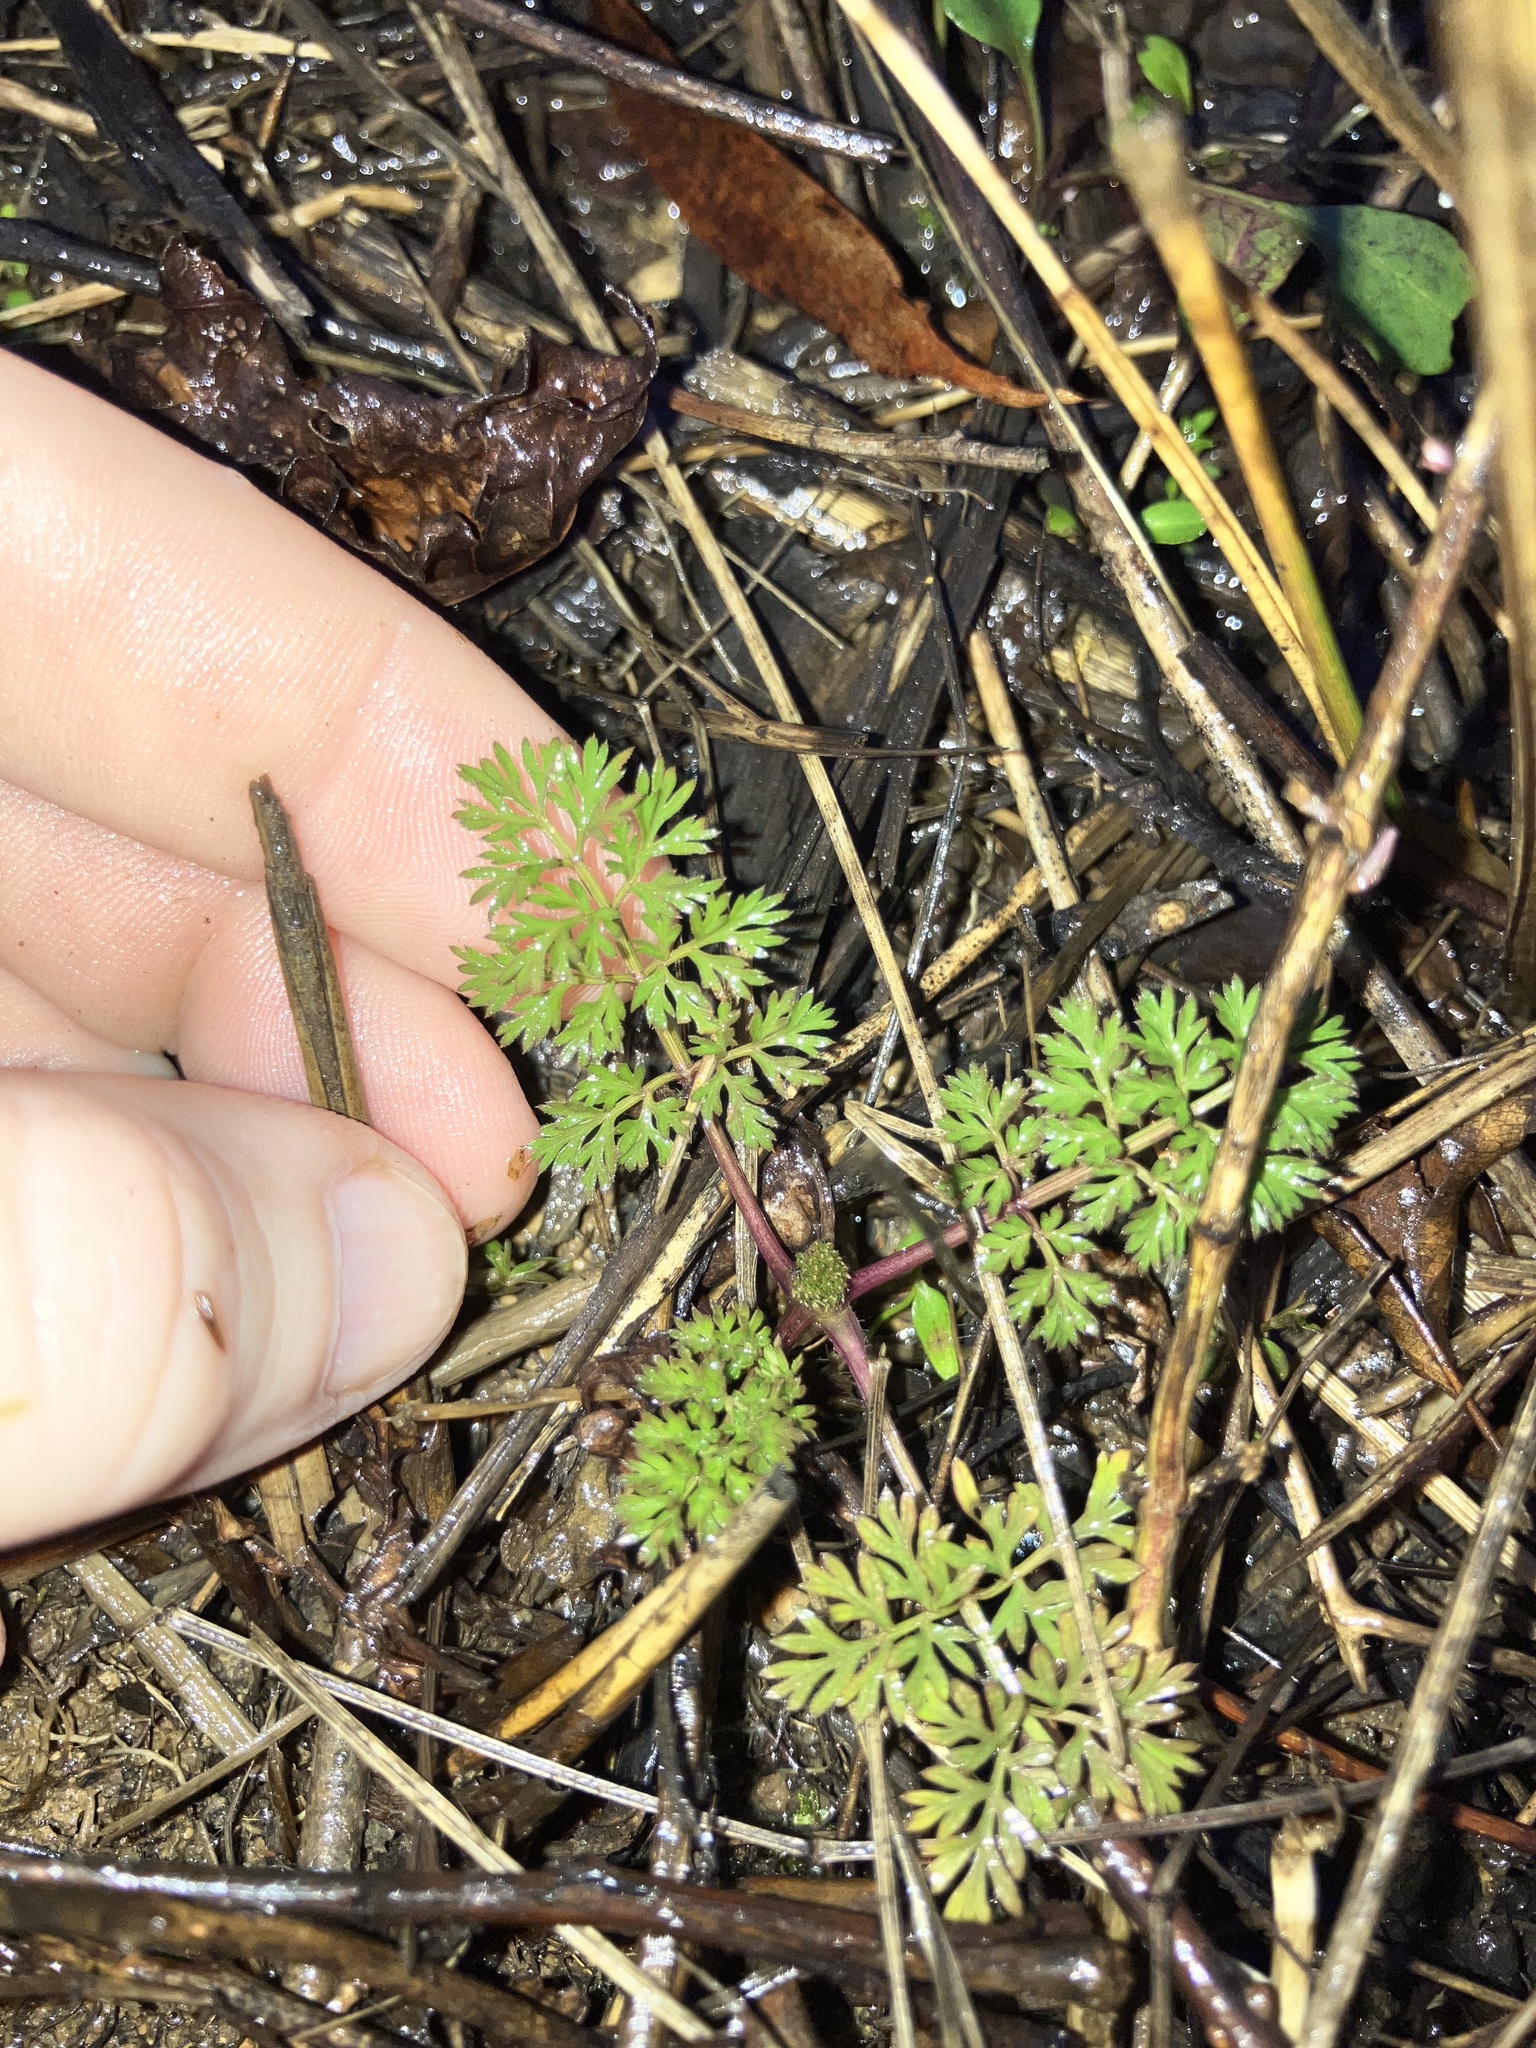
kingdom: Plantae
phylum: Tracheophyta
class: Magnoliopsida
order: Apiales
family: Apiaceae
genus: Daucus
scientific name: Daucus carota
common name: Wild carrot
